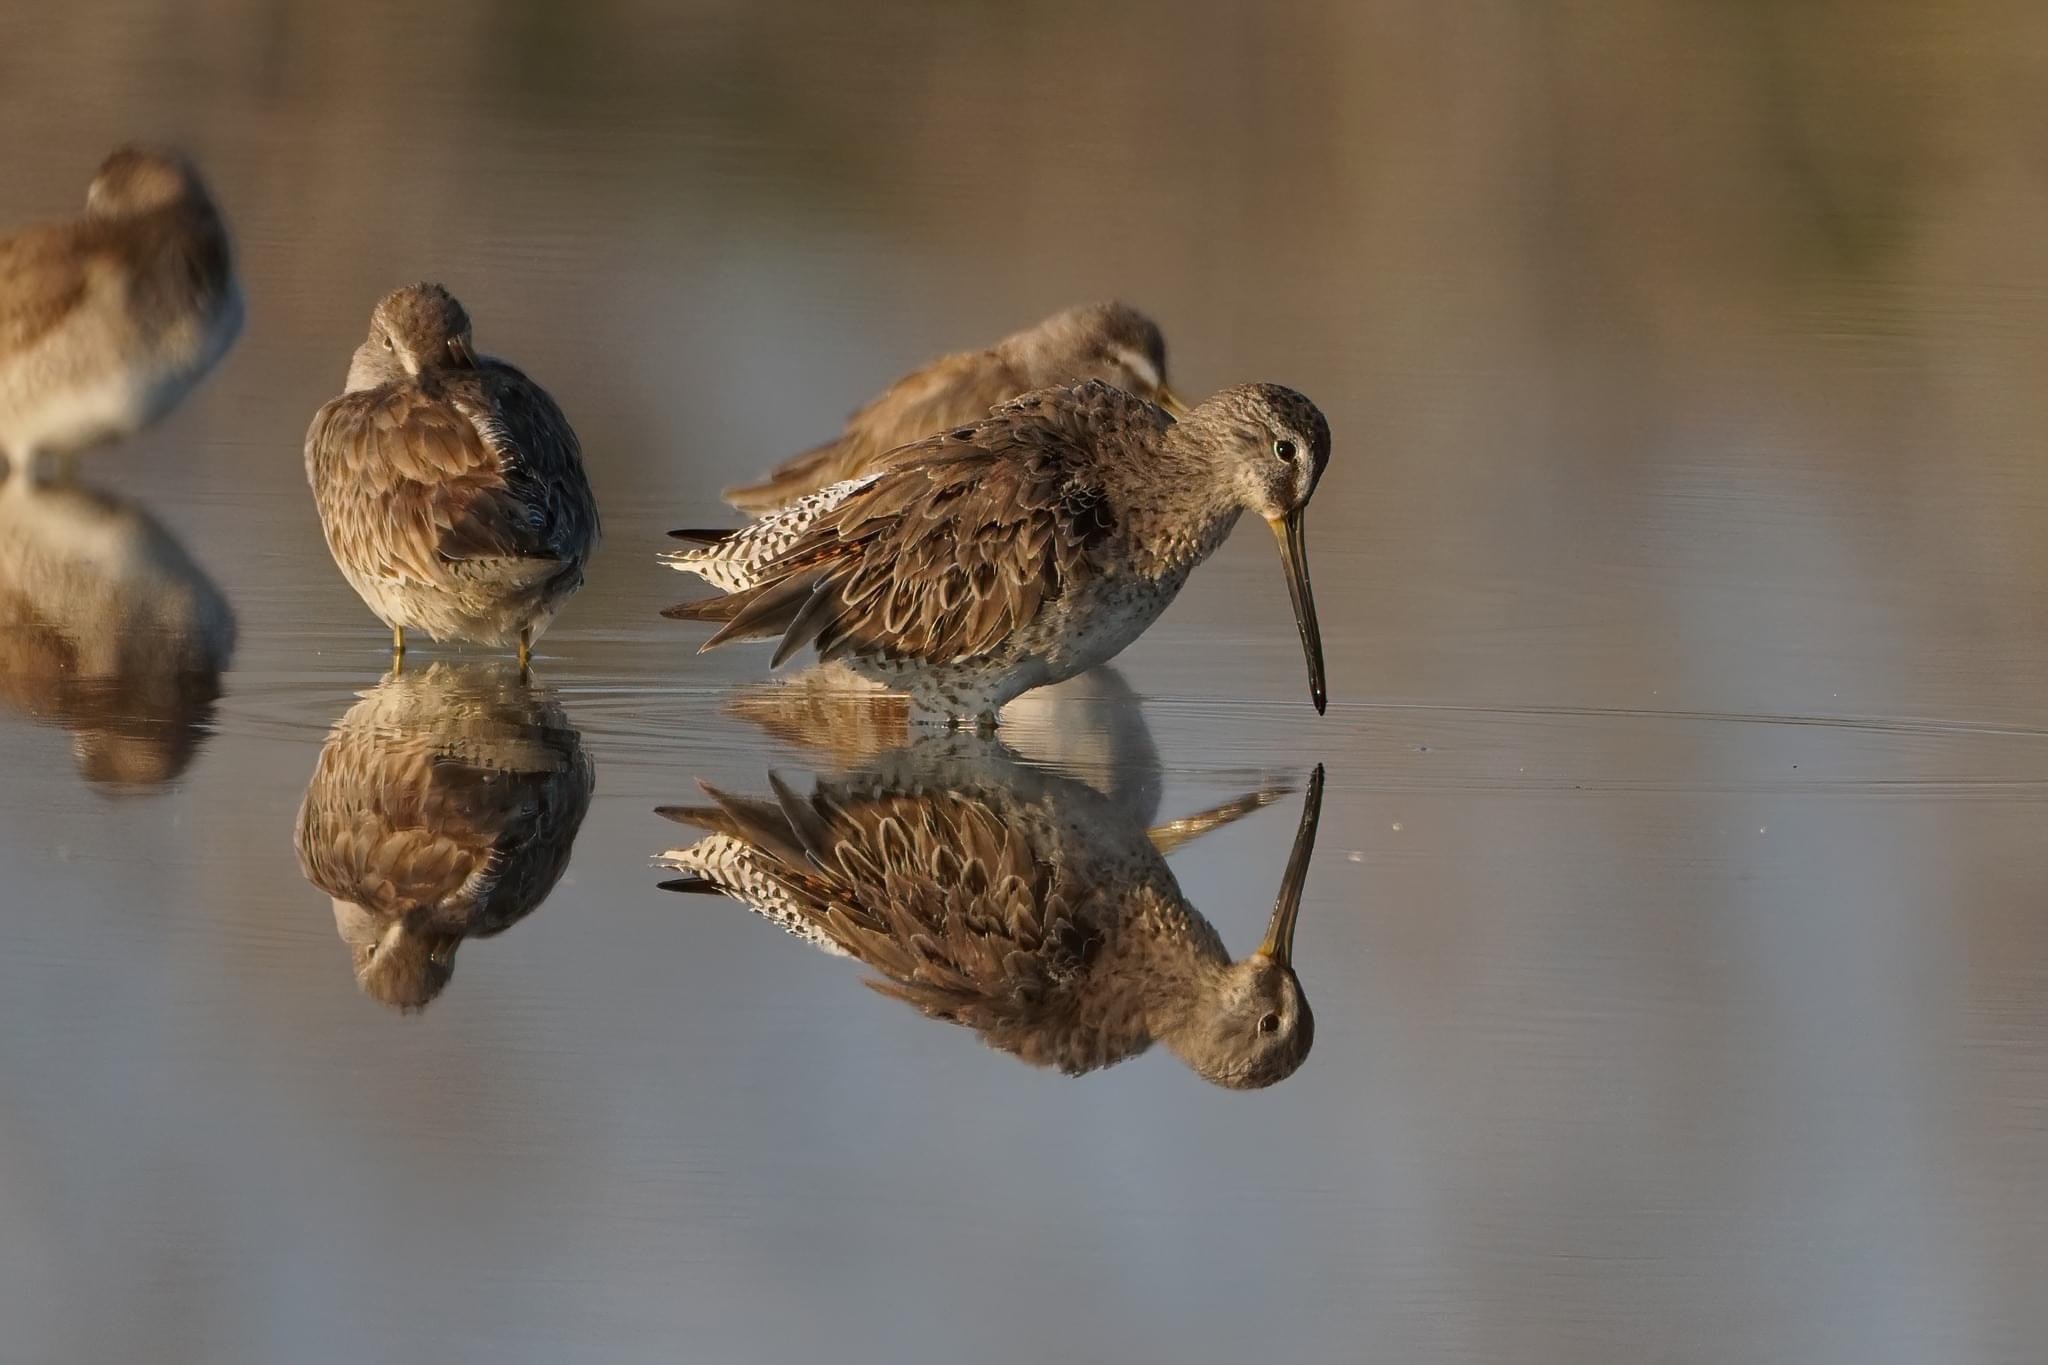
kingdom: Animalia
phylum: Chordata
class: Aves
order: Charadriiformes
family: Scolopacidae
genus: Limnodromus
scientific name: Limnodromus griseus
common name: Short-billed dowitcher
